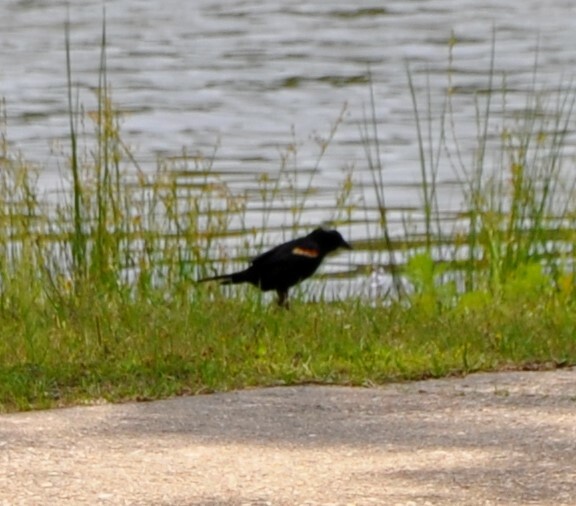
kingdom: Animalia
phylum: Chordata
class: Aves
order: Passeriformes
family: Icteridae
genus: Agelaius
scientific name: Agelaius phoeniceus
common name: Red-winged blackbird
